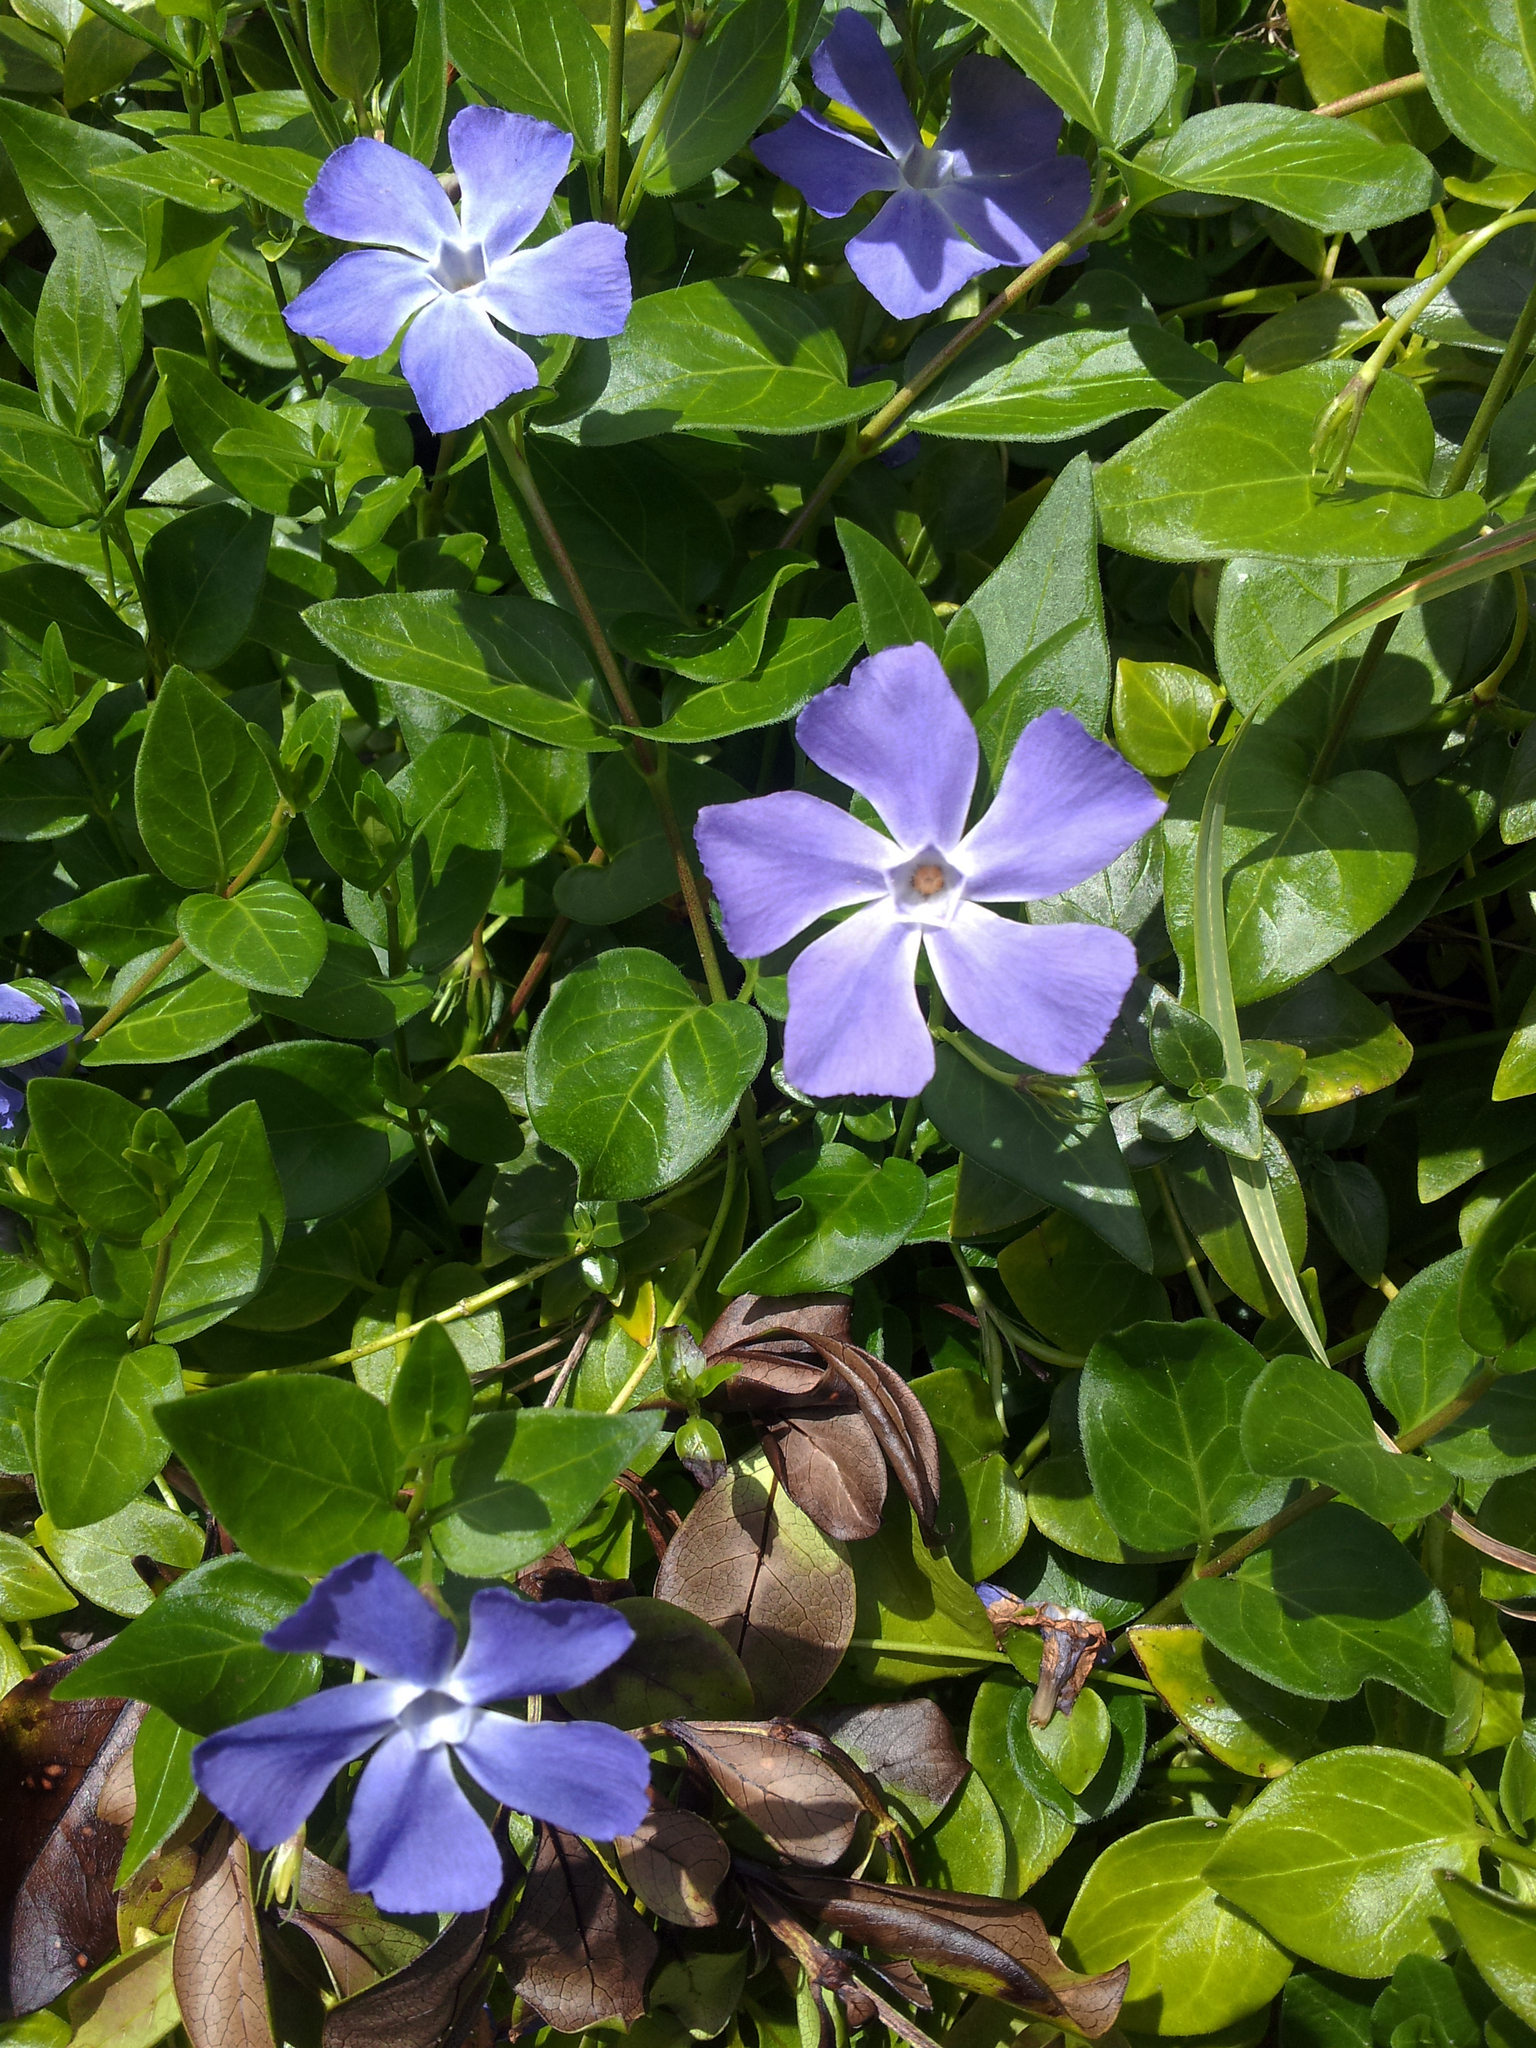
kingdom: Plantae
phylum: Tracheophyta
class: Magnoliopsida
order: Gentianales
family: Apocynaceae
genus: Vinca
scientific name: Vinca major
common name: Greater periwinkle
